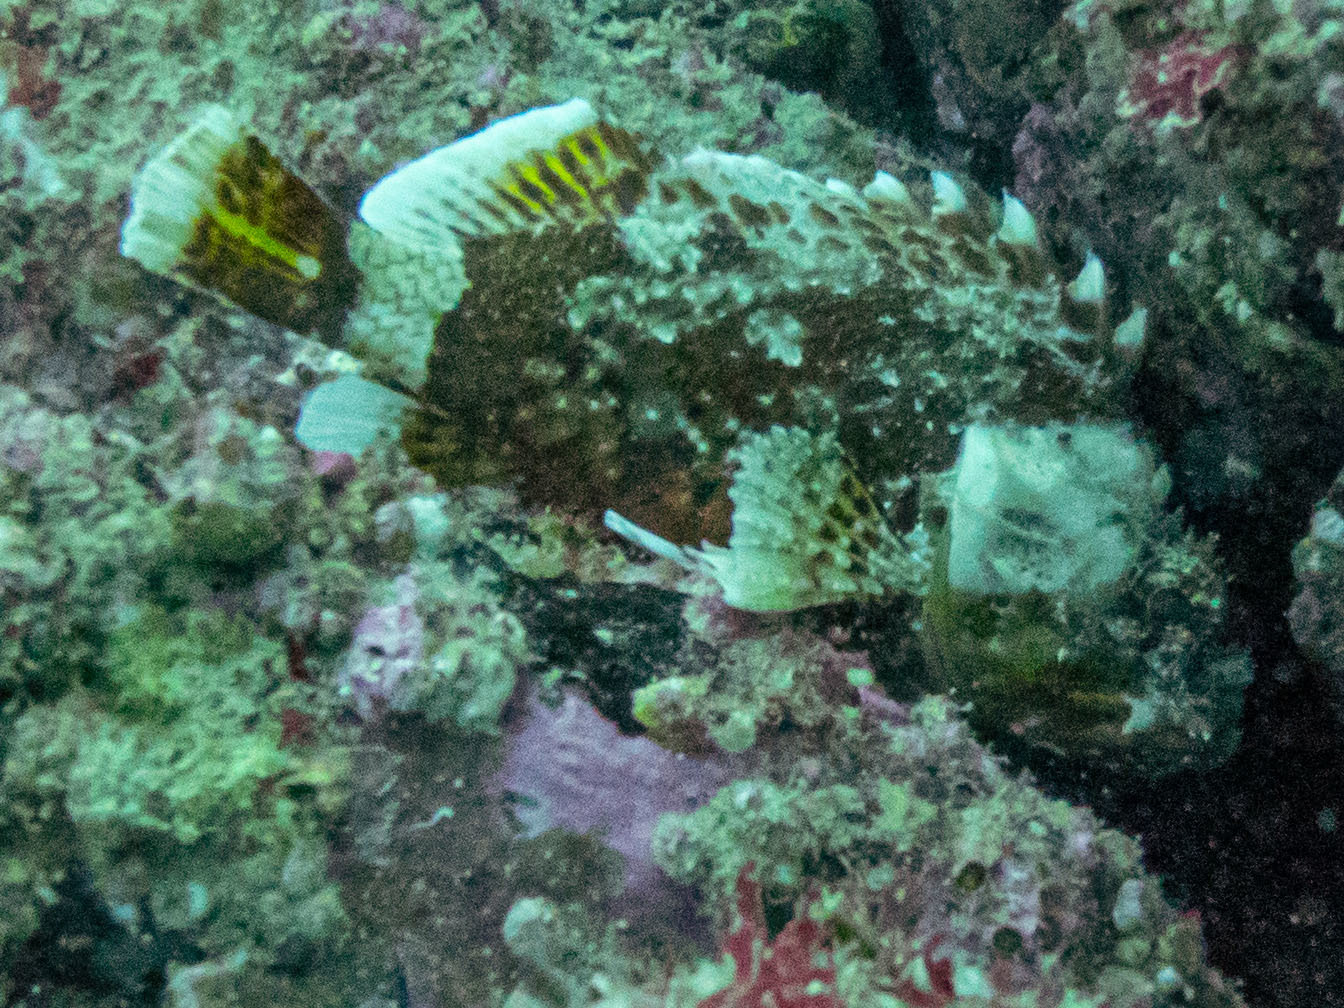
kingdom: Animalia
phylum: Chordata
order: Scorpaeniformes
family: Scorpaenidae
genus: Scorpaena
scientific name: Scorpaena papillosa
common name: Chained scorpionfish
